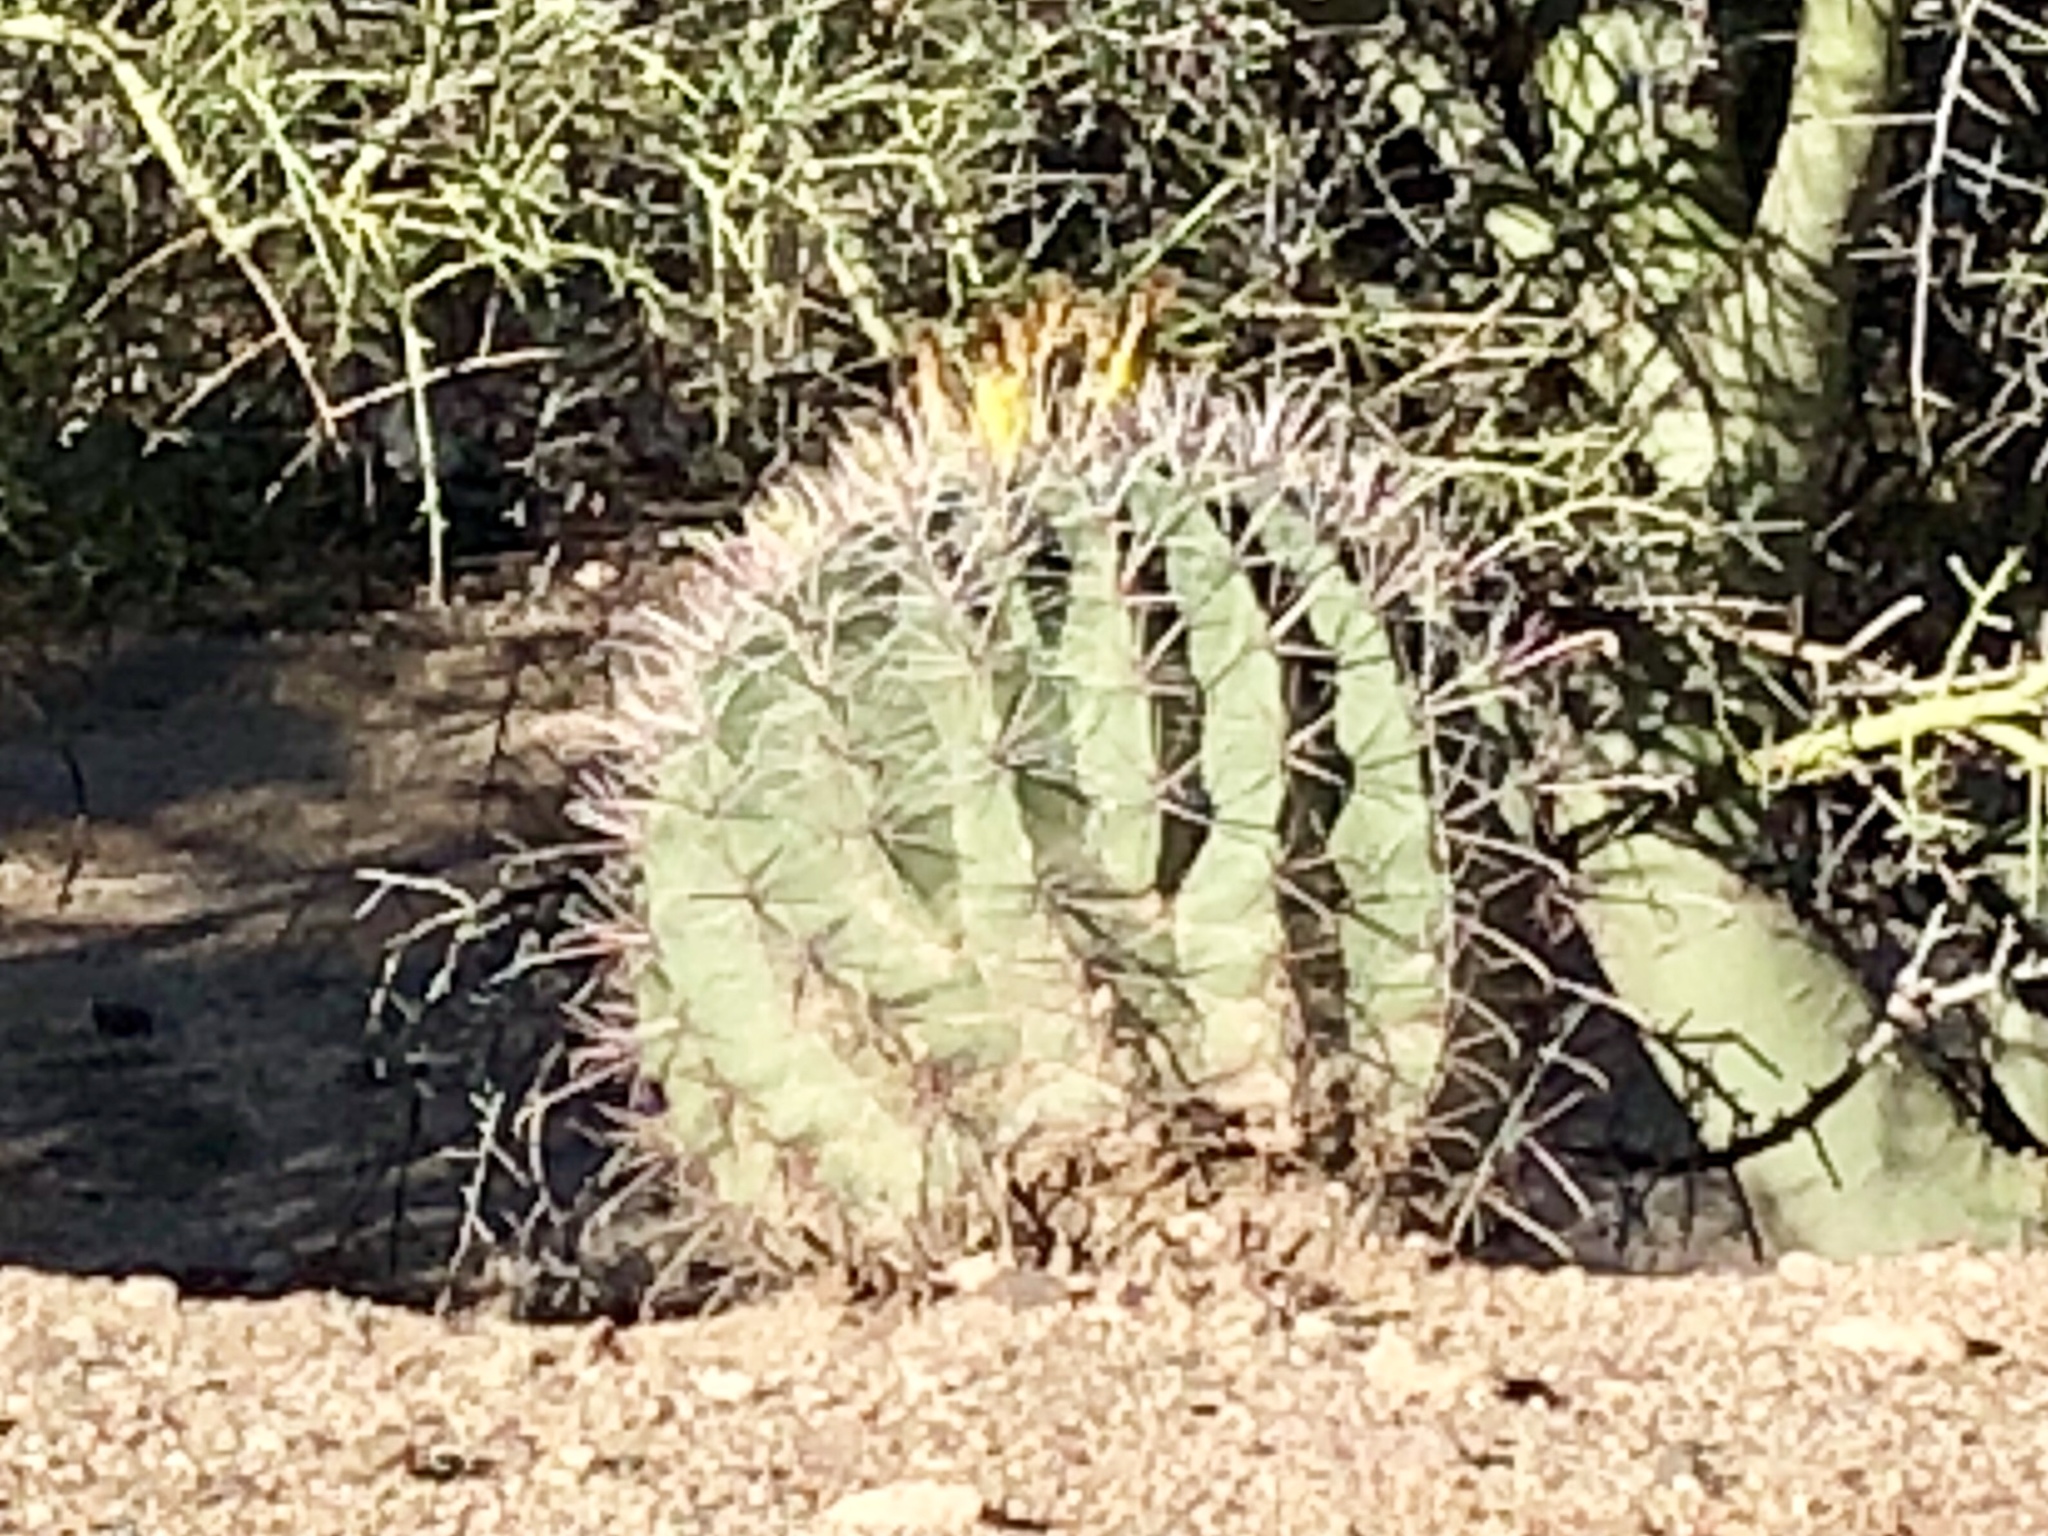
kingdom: Plantae
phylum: Tracheophyta
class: Magnoliopsida
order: Caryophyllales
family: Cactaceae
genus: Ferocactus
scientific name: Ferocactus wislizeni
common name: Candy barrel cactus
